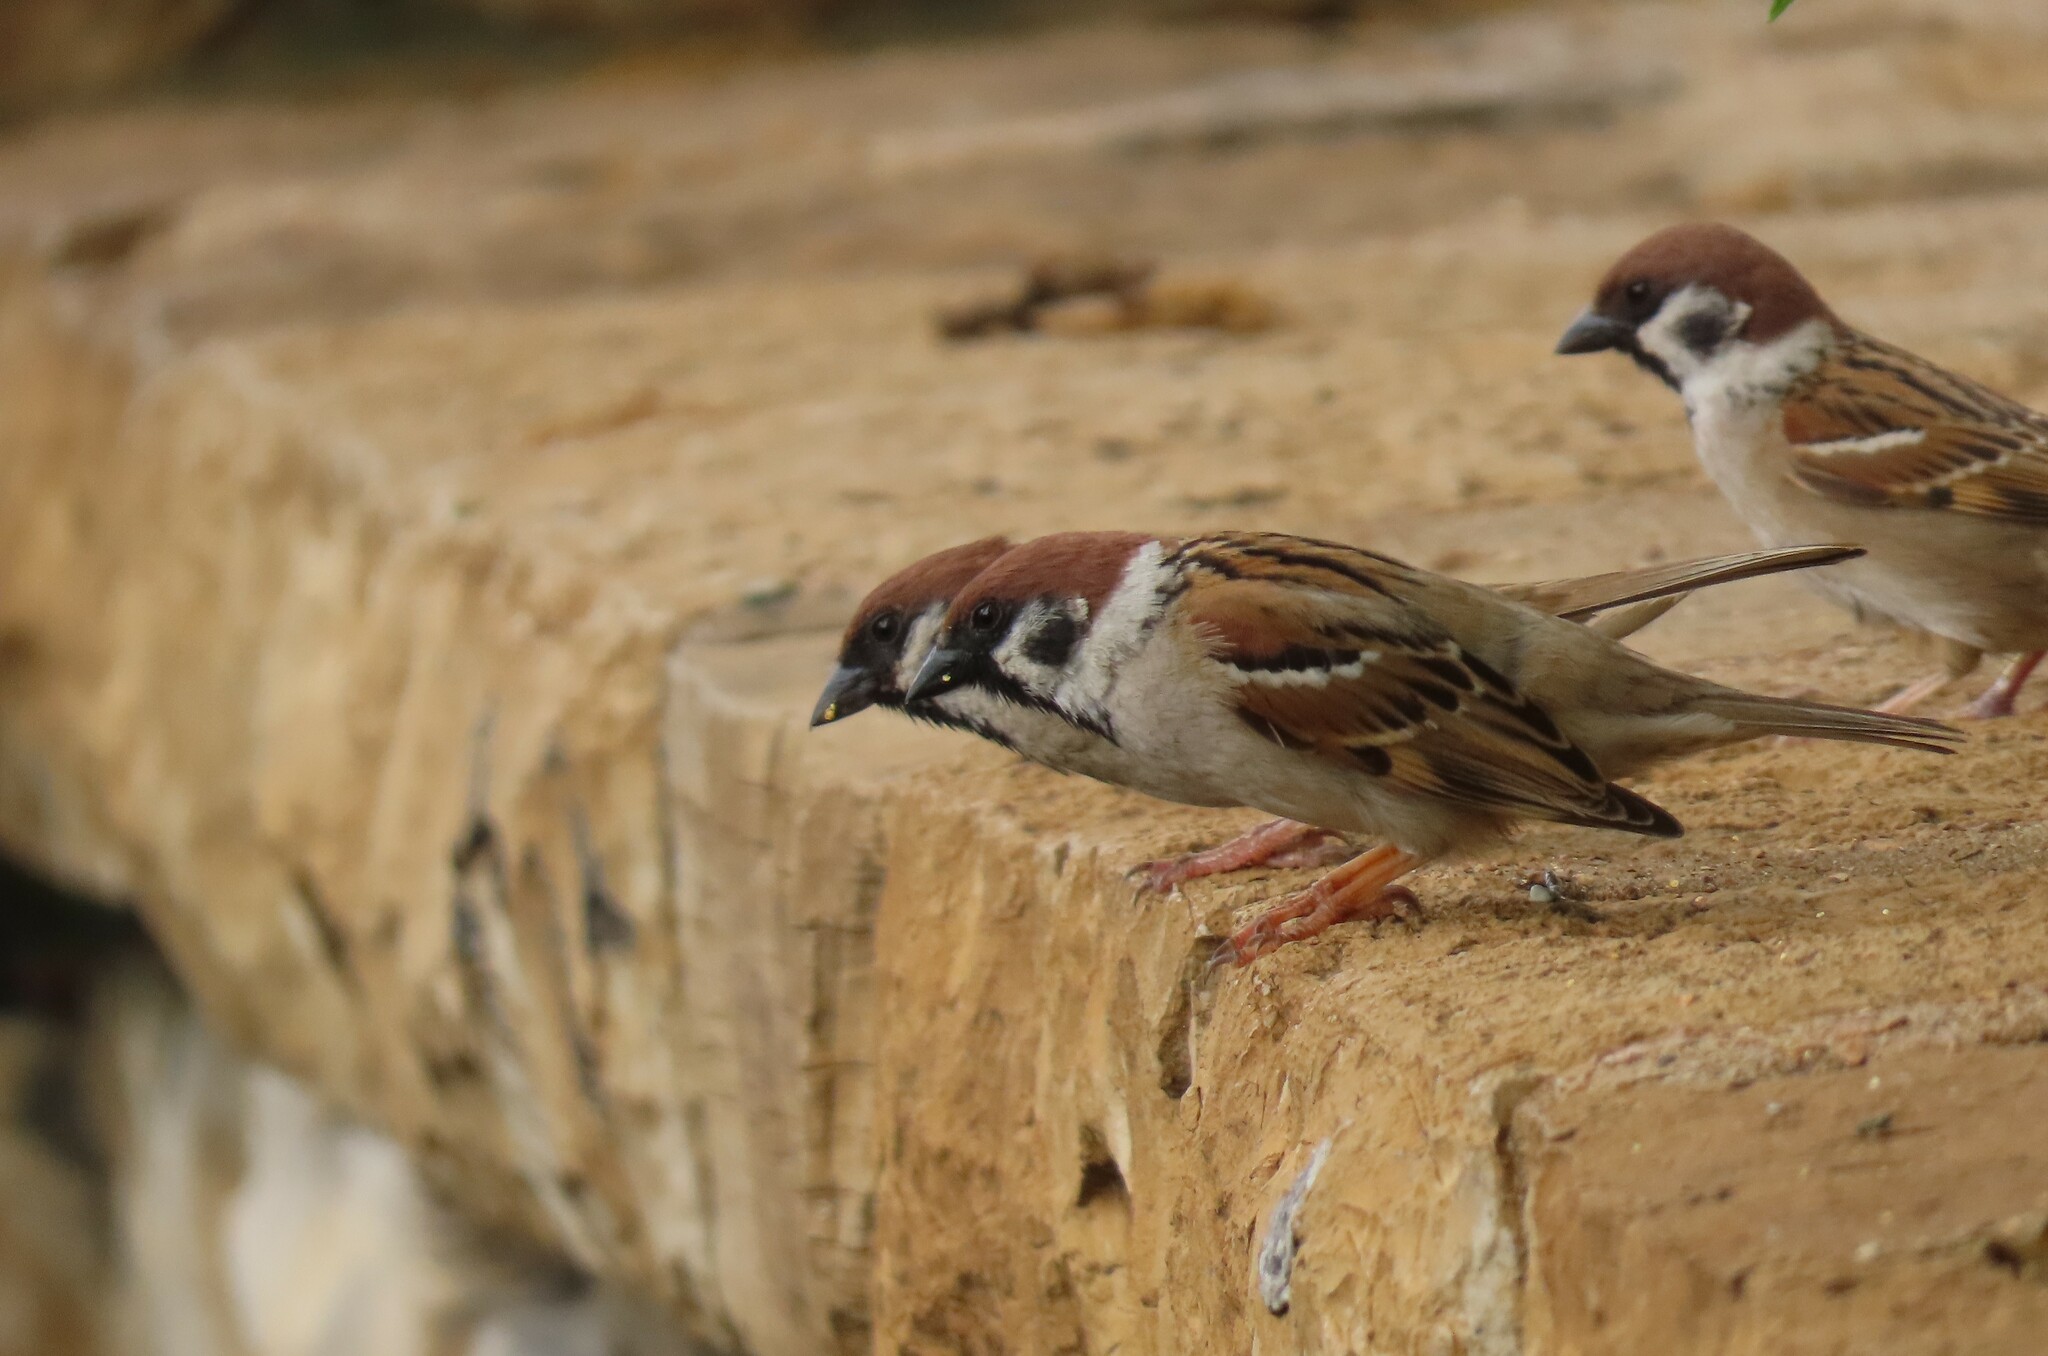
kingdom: Animalia
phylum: Chordata
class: Aves
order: Passeriformes
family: Passeridae
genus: Passer
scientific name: Passer montanus
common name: Eurasian tree sparrow
